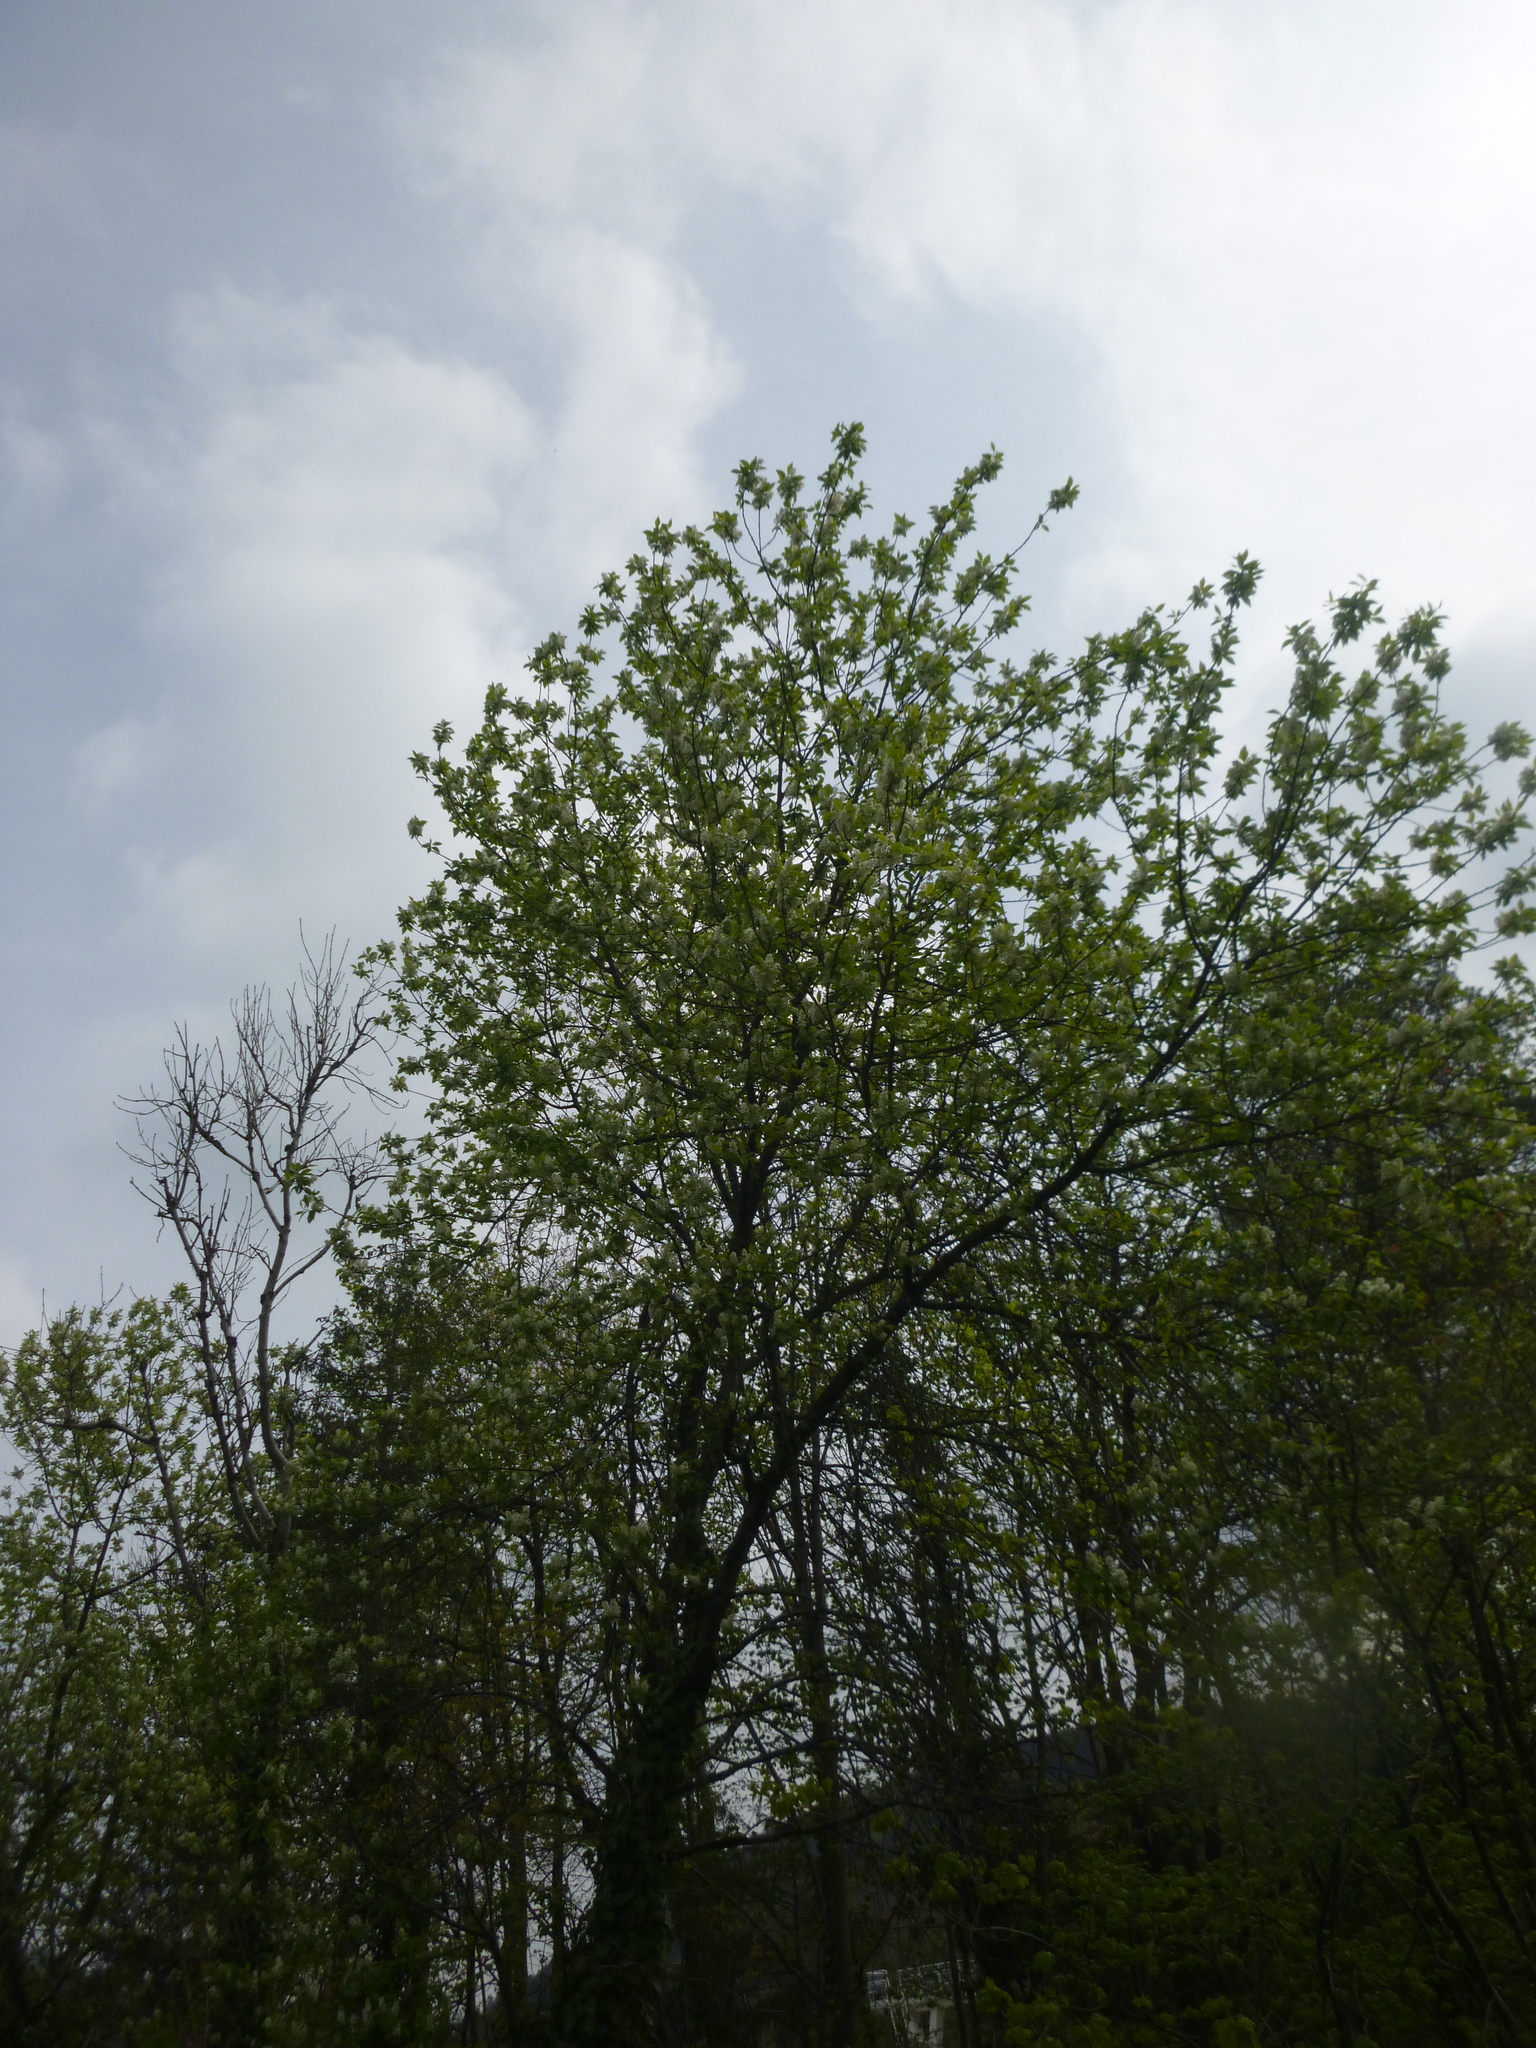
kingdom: Plantae
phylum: Tracheophyta
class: Magnoliopsida
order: Rosales
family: Rosaceae
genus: Prunus
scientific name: Prunus padus
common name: Bird cherry
